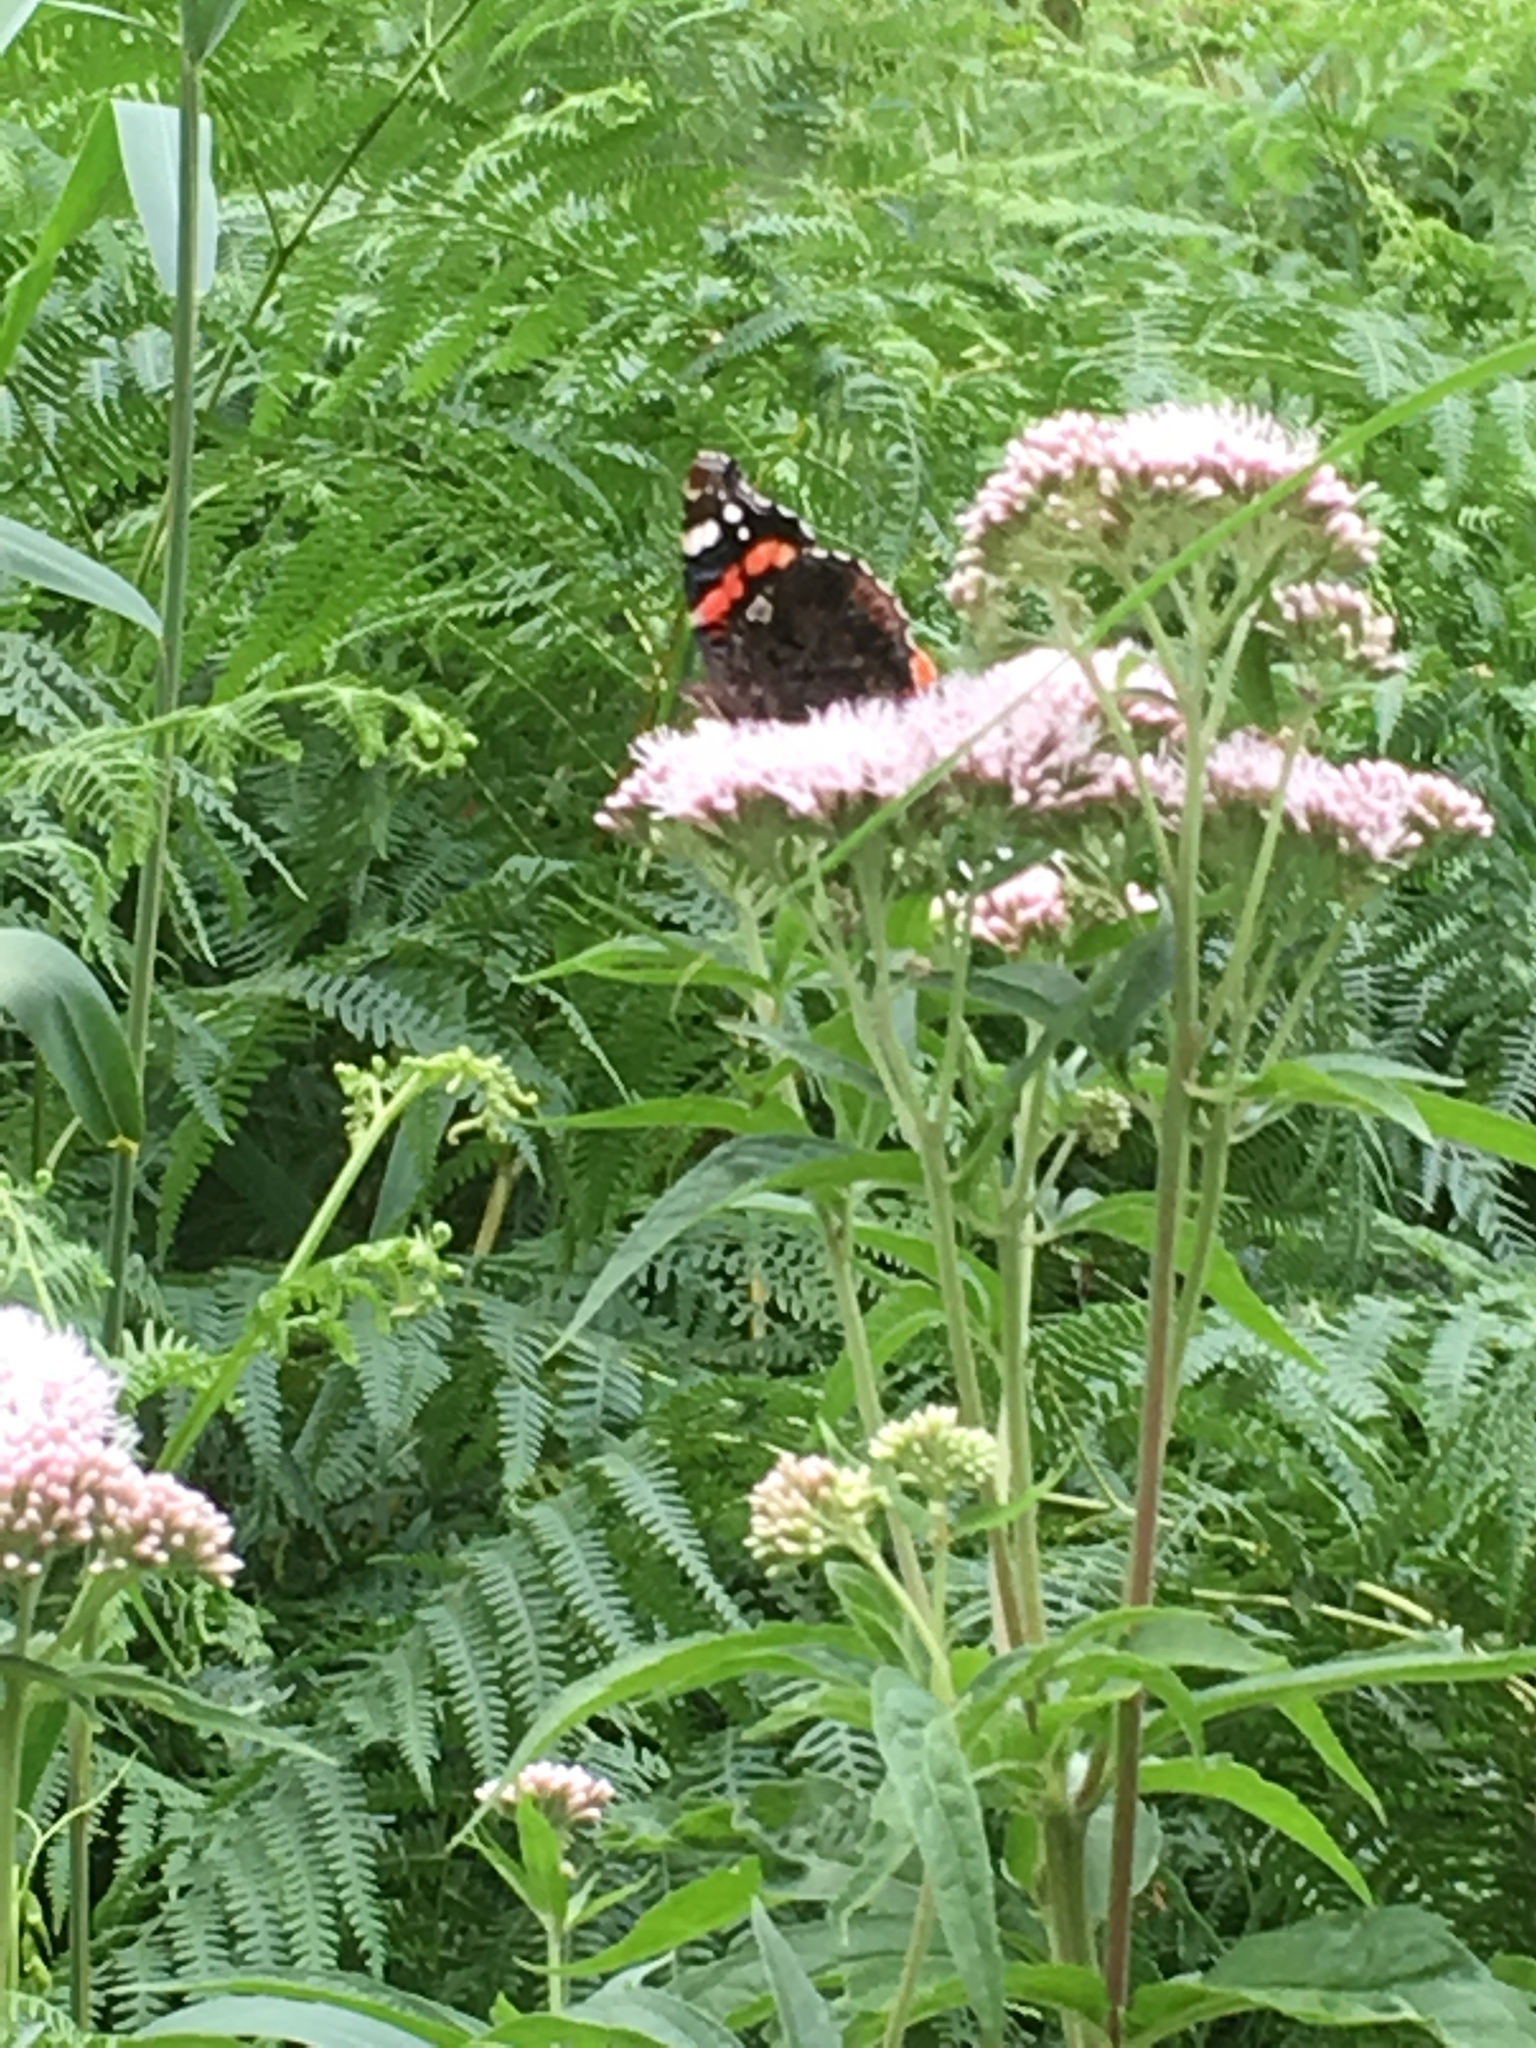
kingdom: Animalia
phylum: Arthropoda
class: Insecta
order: Lepidoptera
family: Nymphalidae
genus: Vanessa
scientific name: Vanessa atalanta
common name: Red admiral
